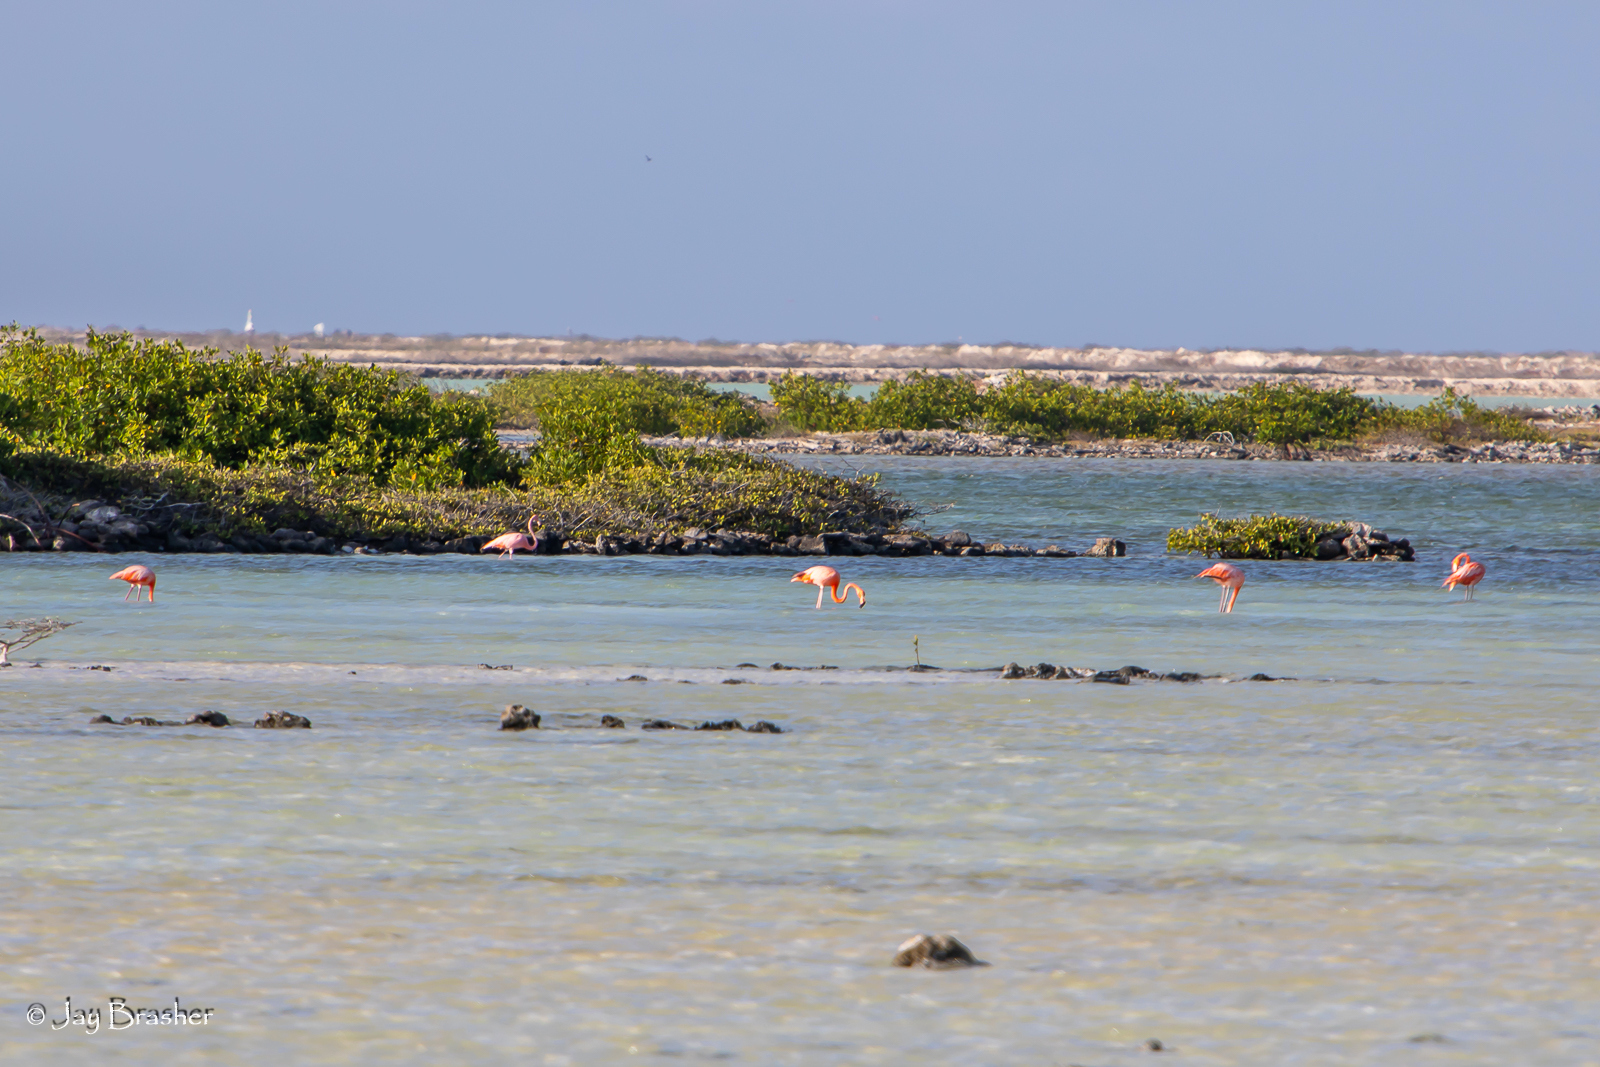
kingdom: Animalia
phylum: Chordata
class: Aves
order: Phoenicopteriformes
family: Phoenicopteridae
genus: Phoenicopterus
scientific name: Phoenicopterus ruber
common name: American flamingo
